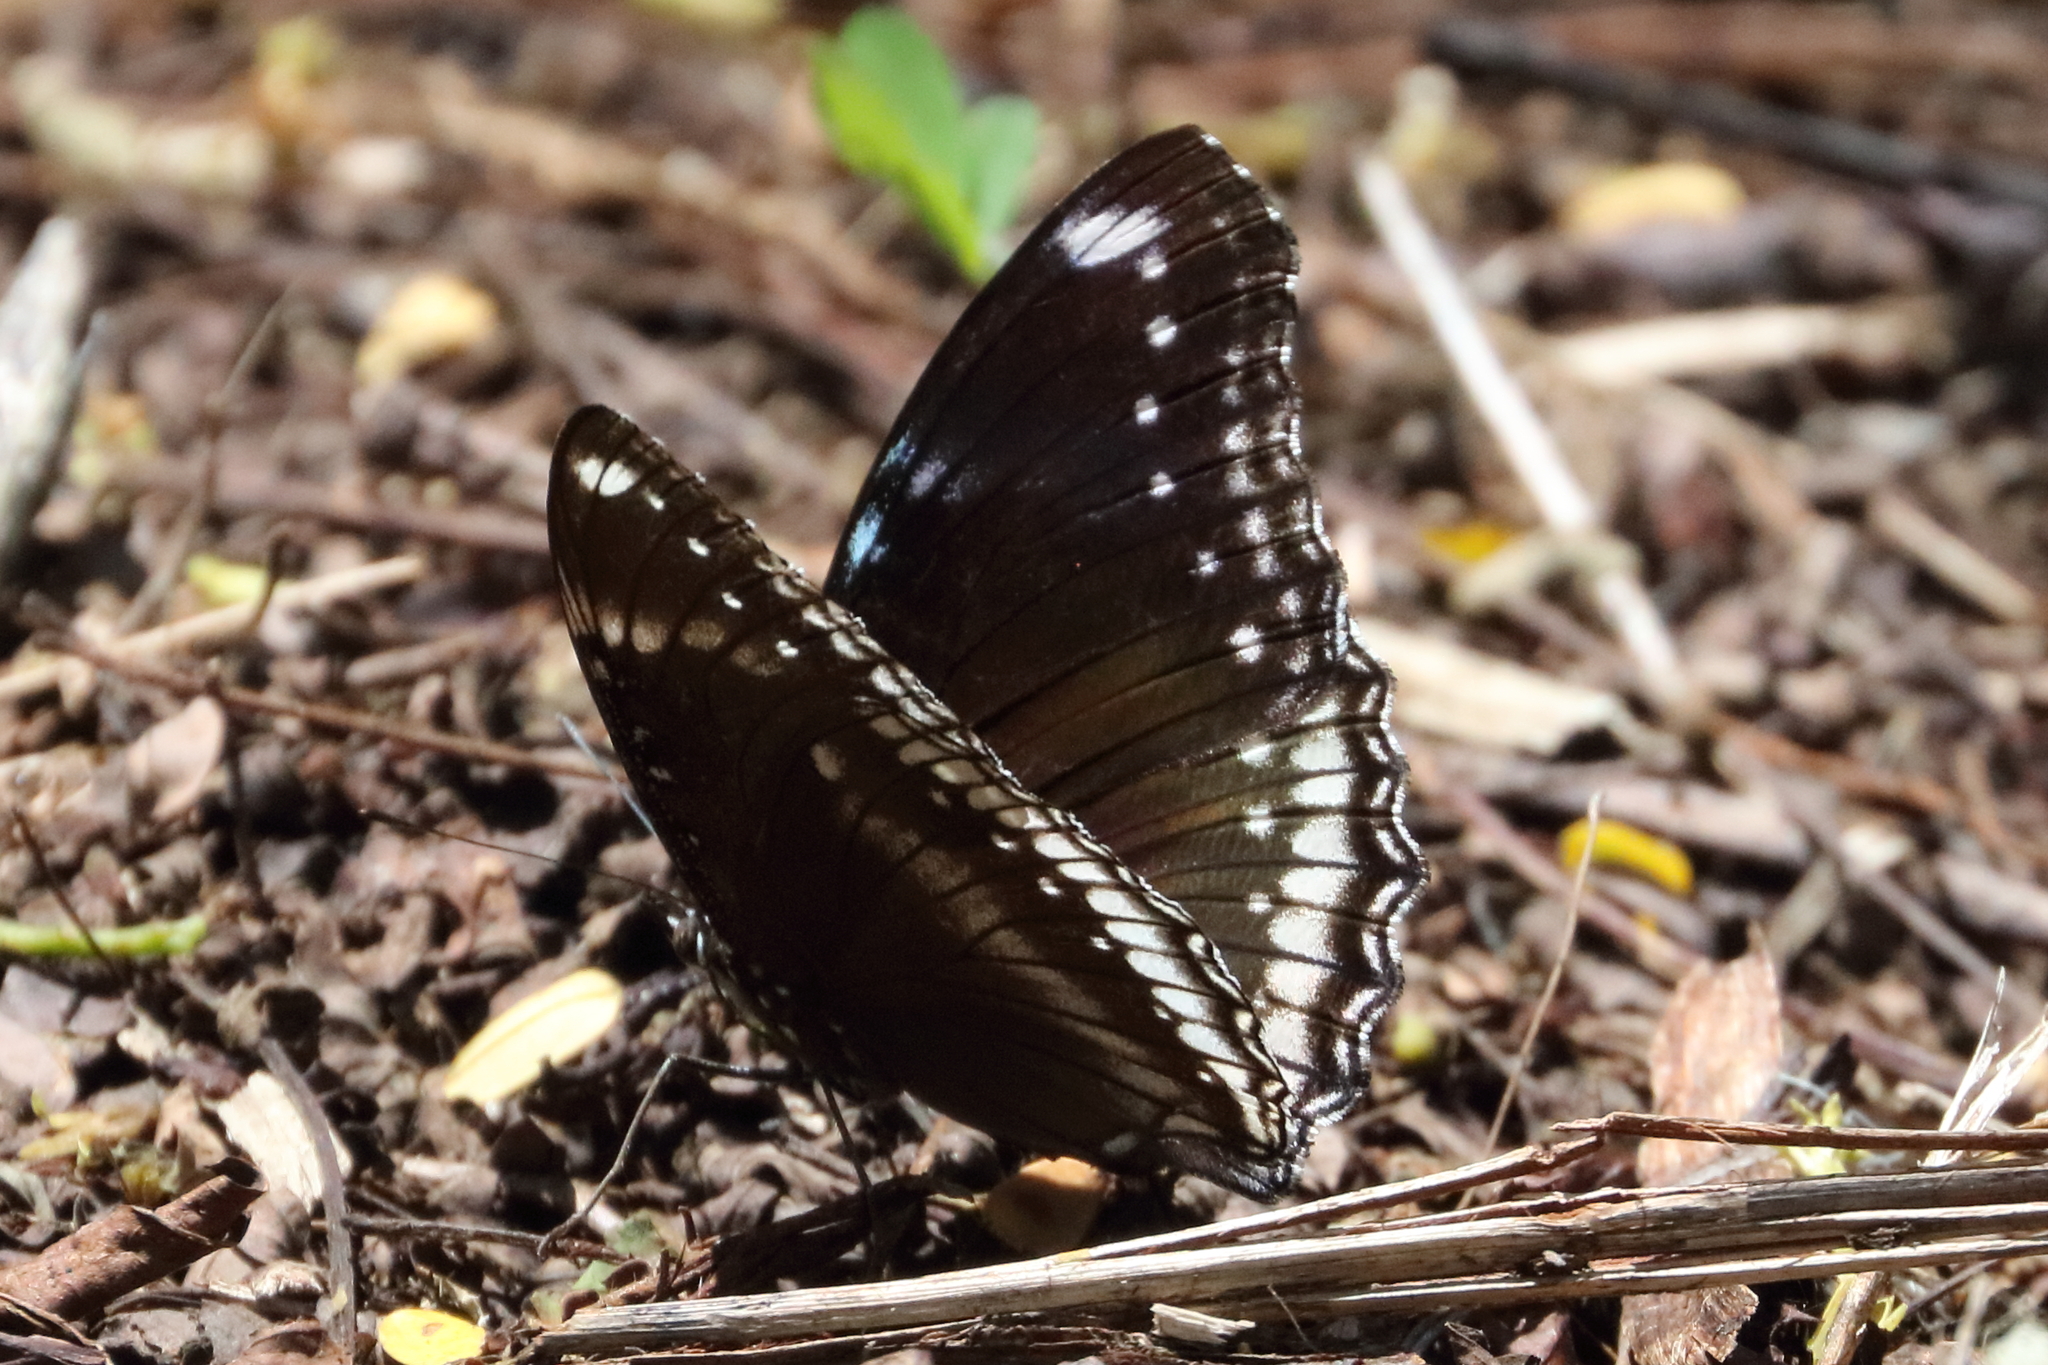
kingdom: Animalia
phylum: Arthropoda
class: Insecta
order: Lepidoptera
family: Nymphalidae
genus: Hypolimnas
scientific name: Hypolimnas bolina
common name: Great eggfly
